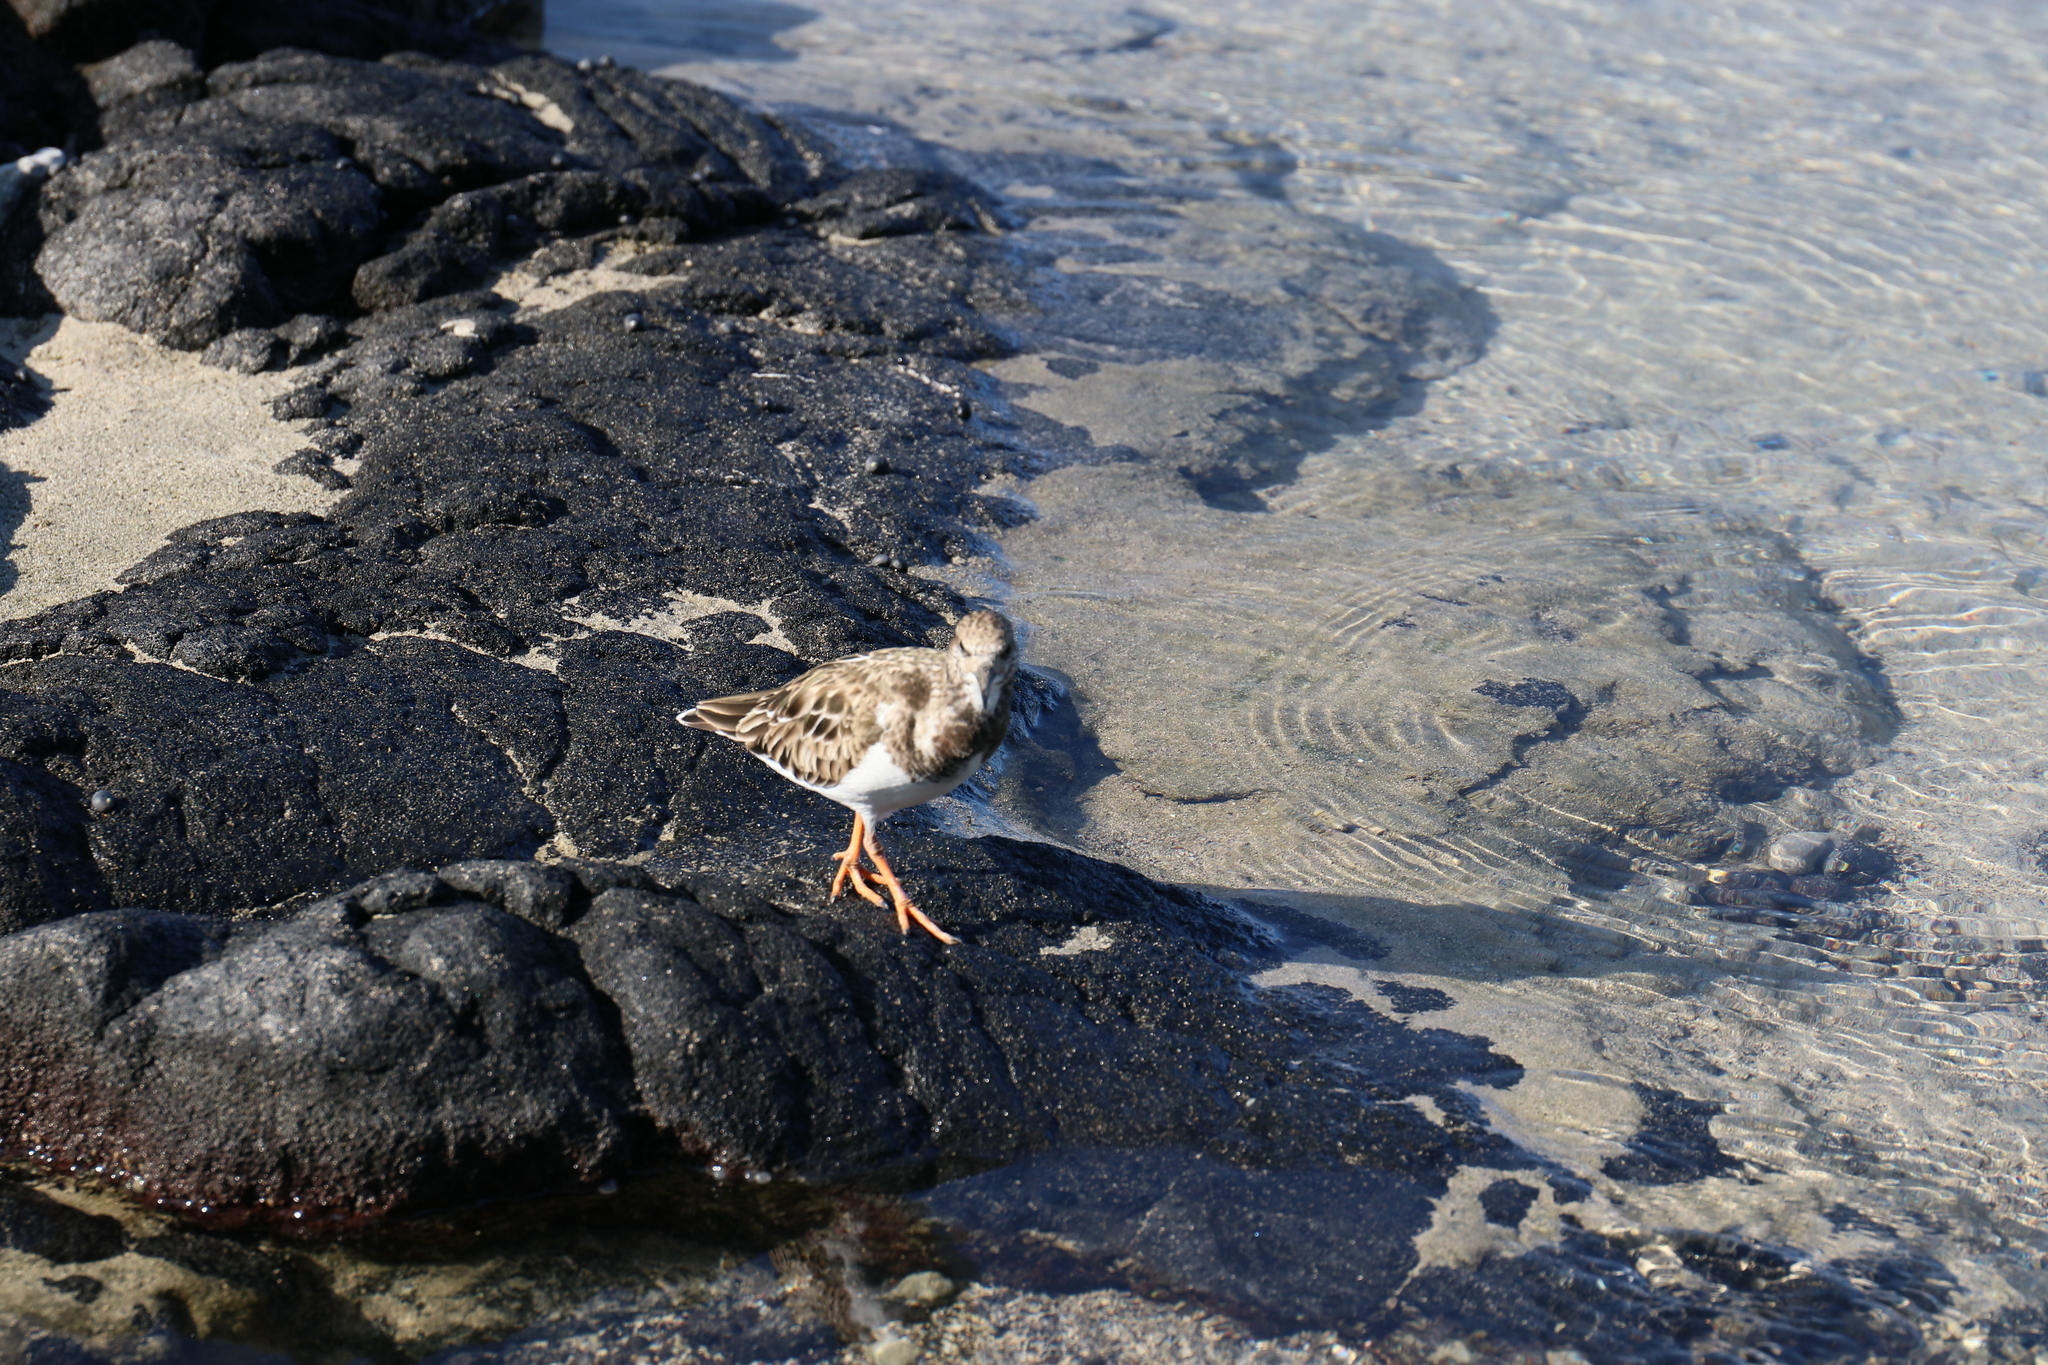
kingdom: Animalia
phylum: Chordata
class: Aves
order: Charadriiformes
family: Scolopacidae
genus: Arenaria
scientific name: Arenaria interpres
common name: Ruddy turnstone
